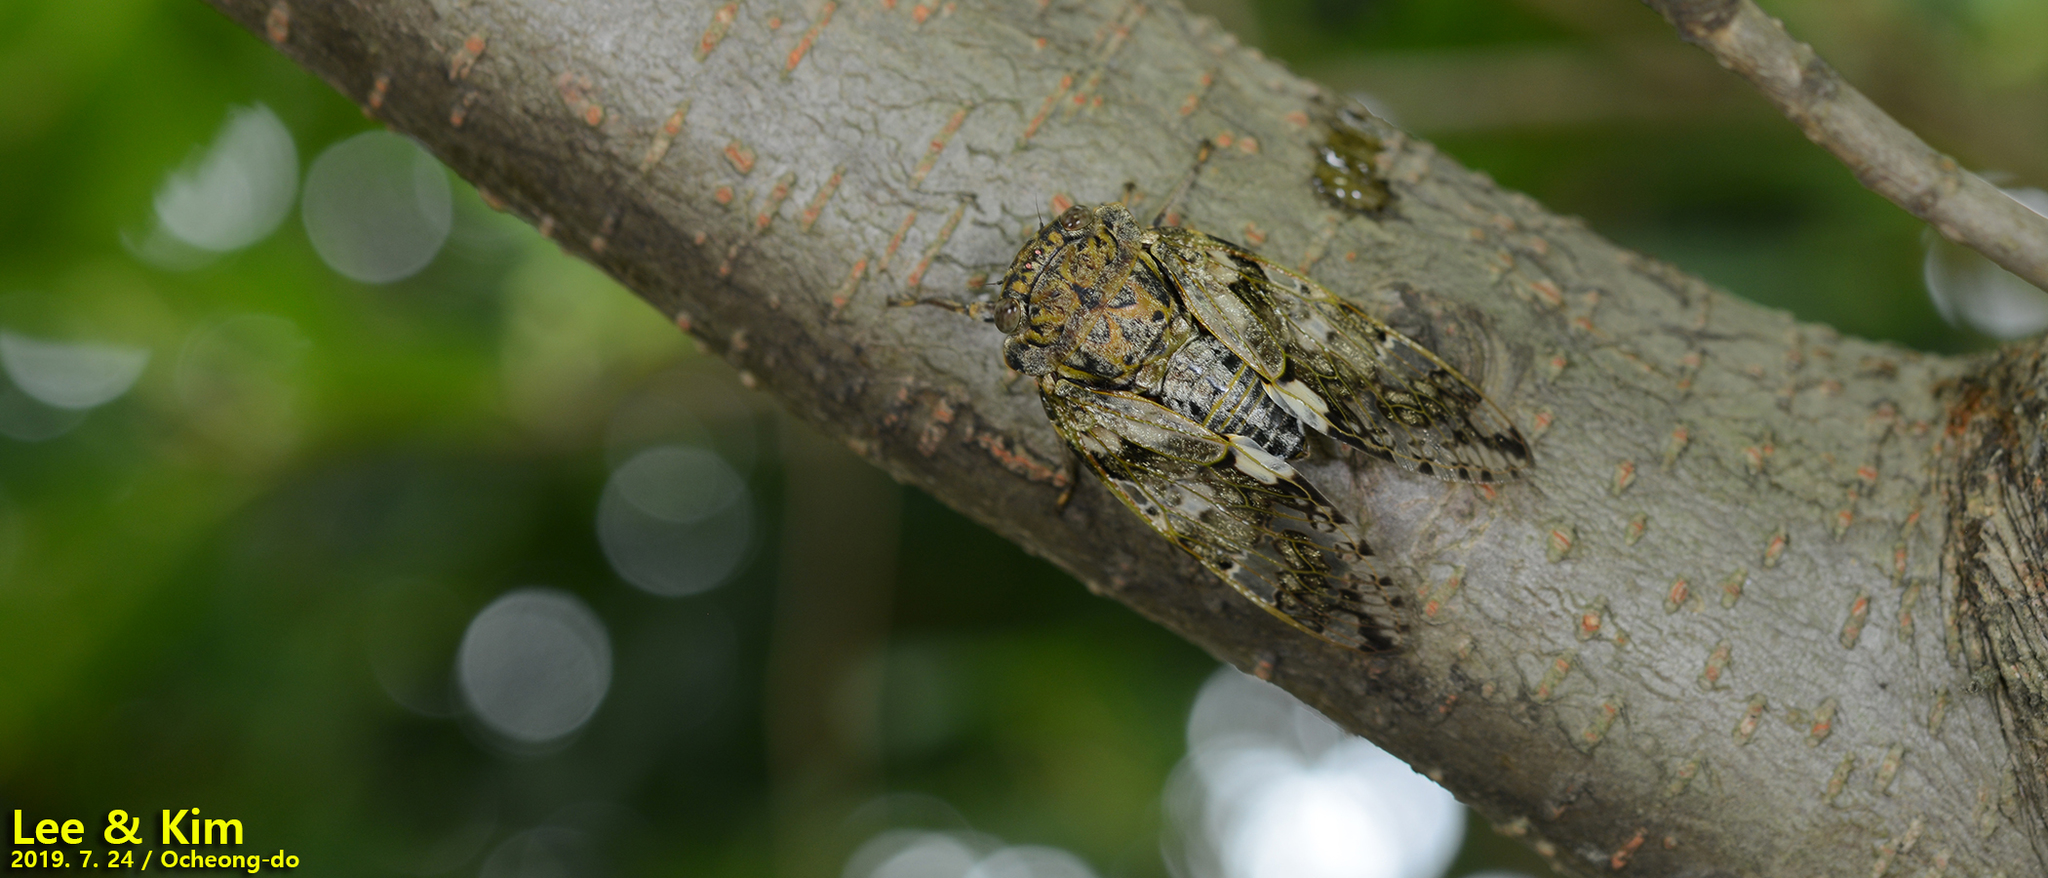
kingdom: Animalia
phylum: Arthropoda
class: Insecta
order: Hemiptera
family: Cicadidae
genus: Platypleura
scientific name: Platypleura kaempferi
